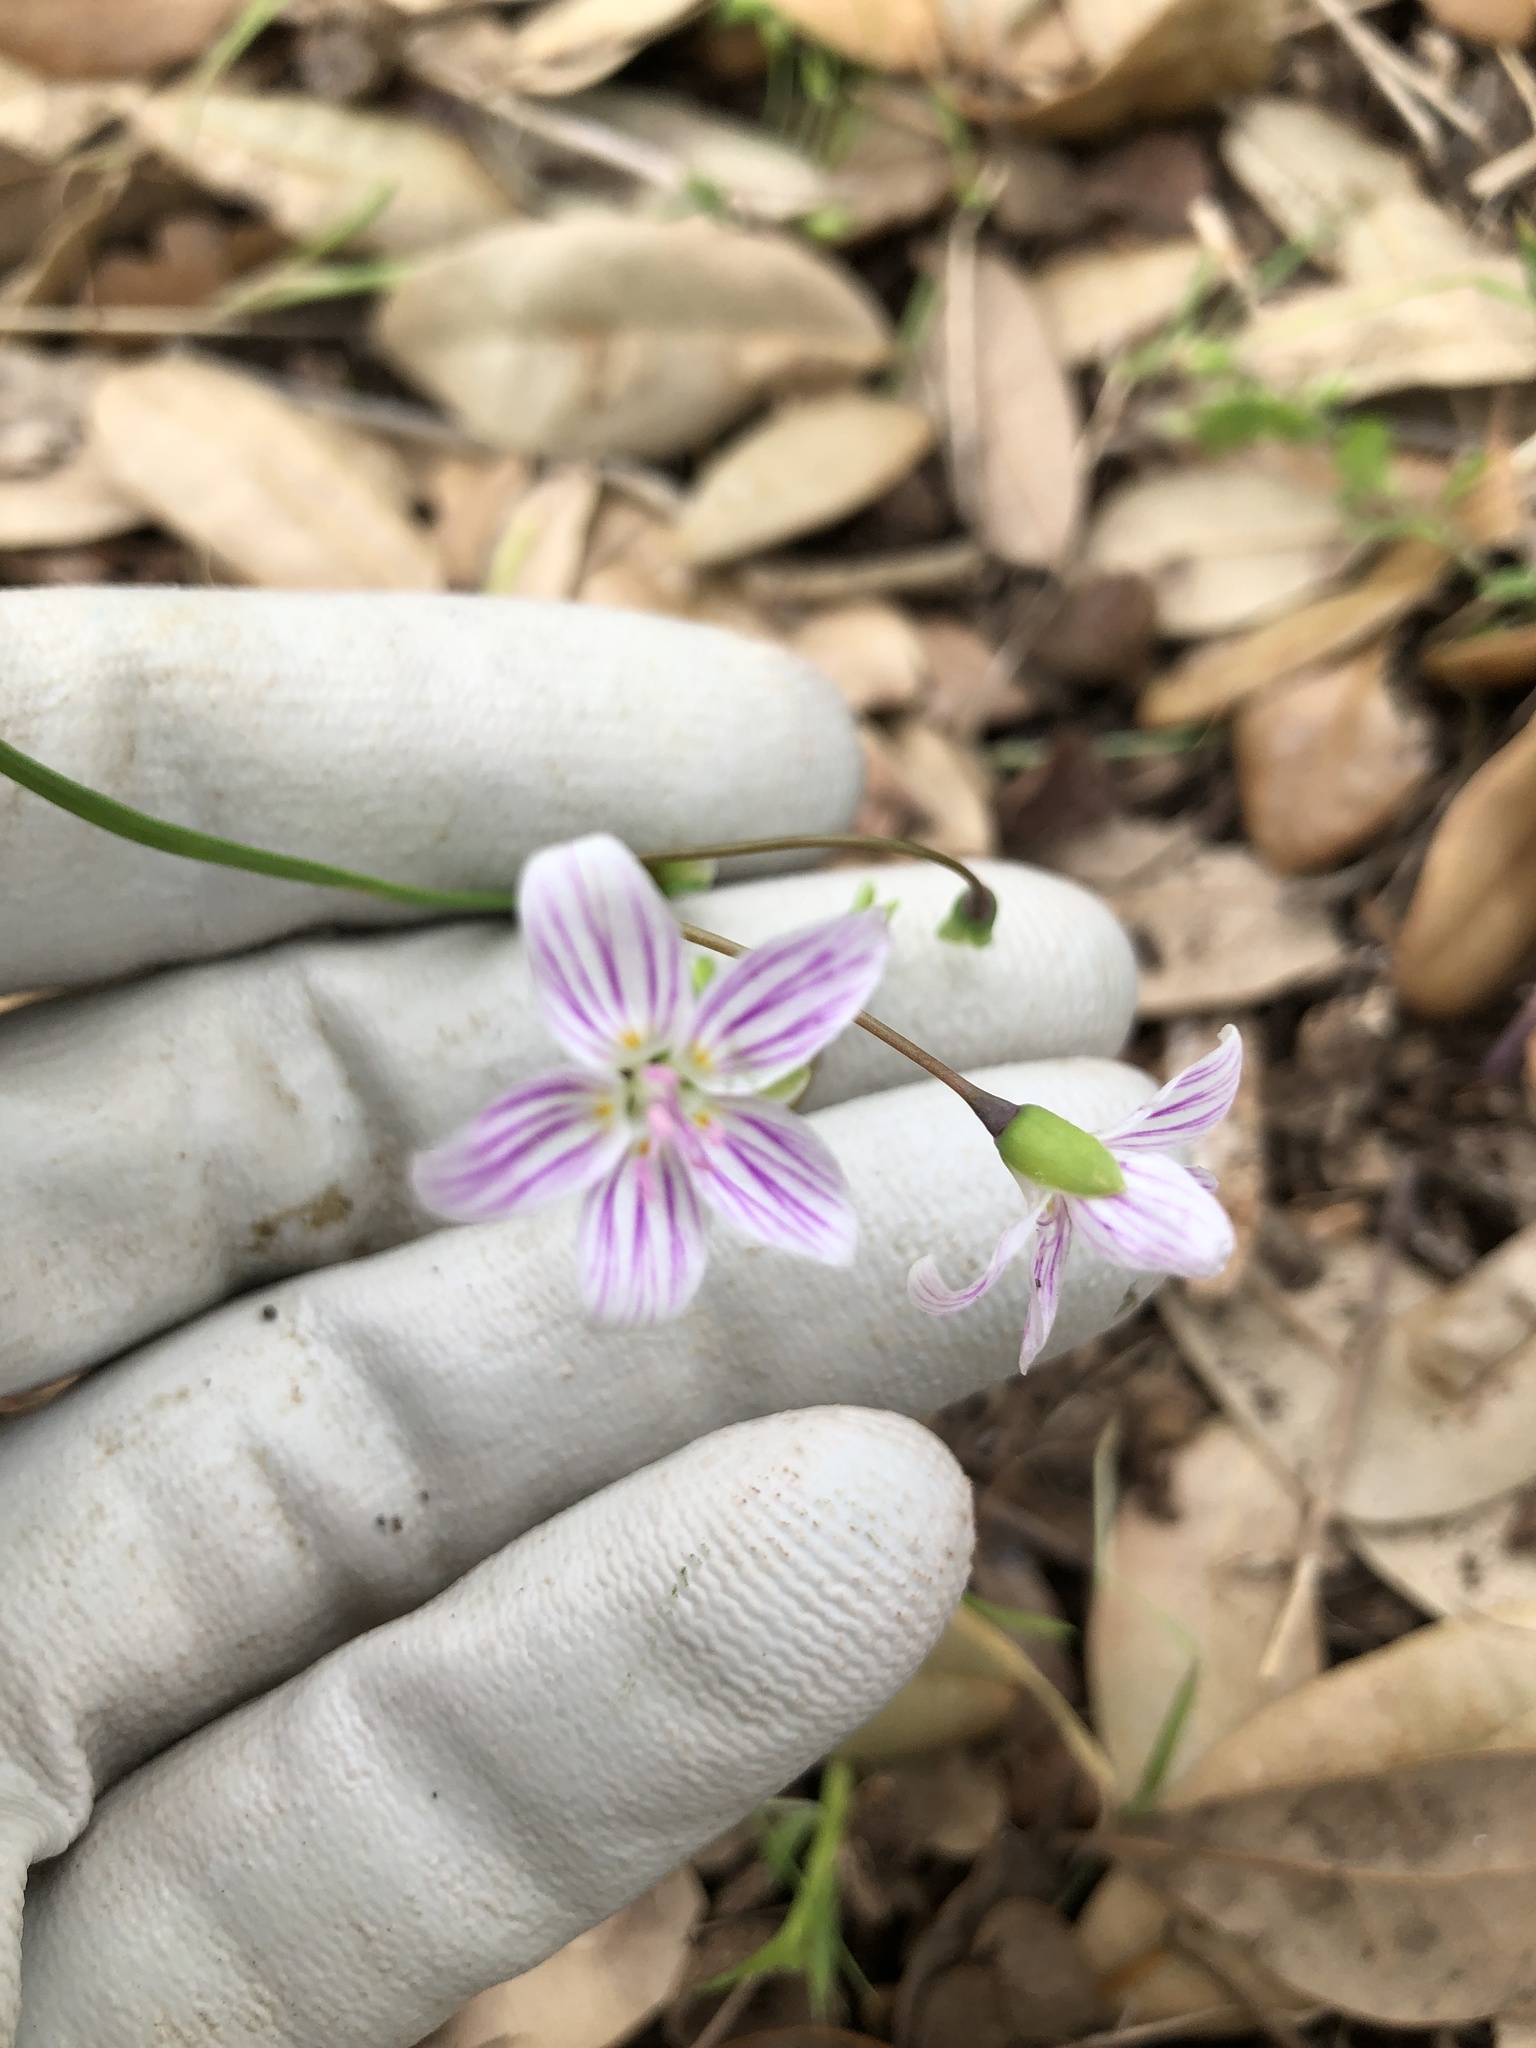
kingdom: Plantae
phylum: Tracheophyta
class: Magnoliopsida
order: Caryophyllales
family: Montiaceae
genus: Claytonia
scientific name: Claytonia virginica
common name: Virginia springbeauty
